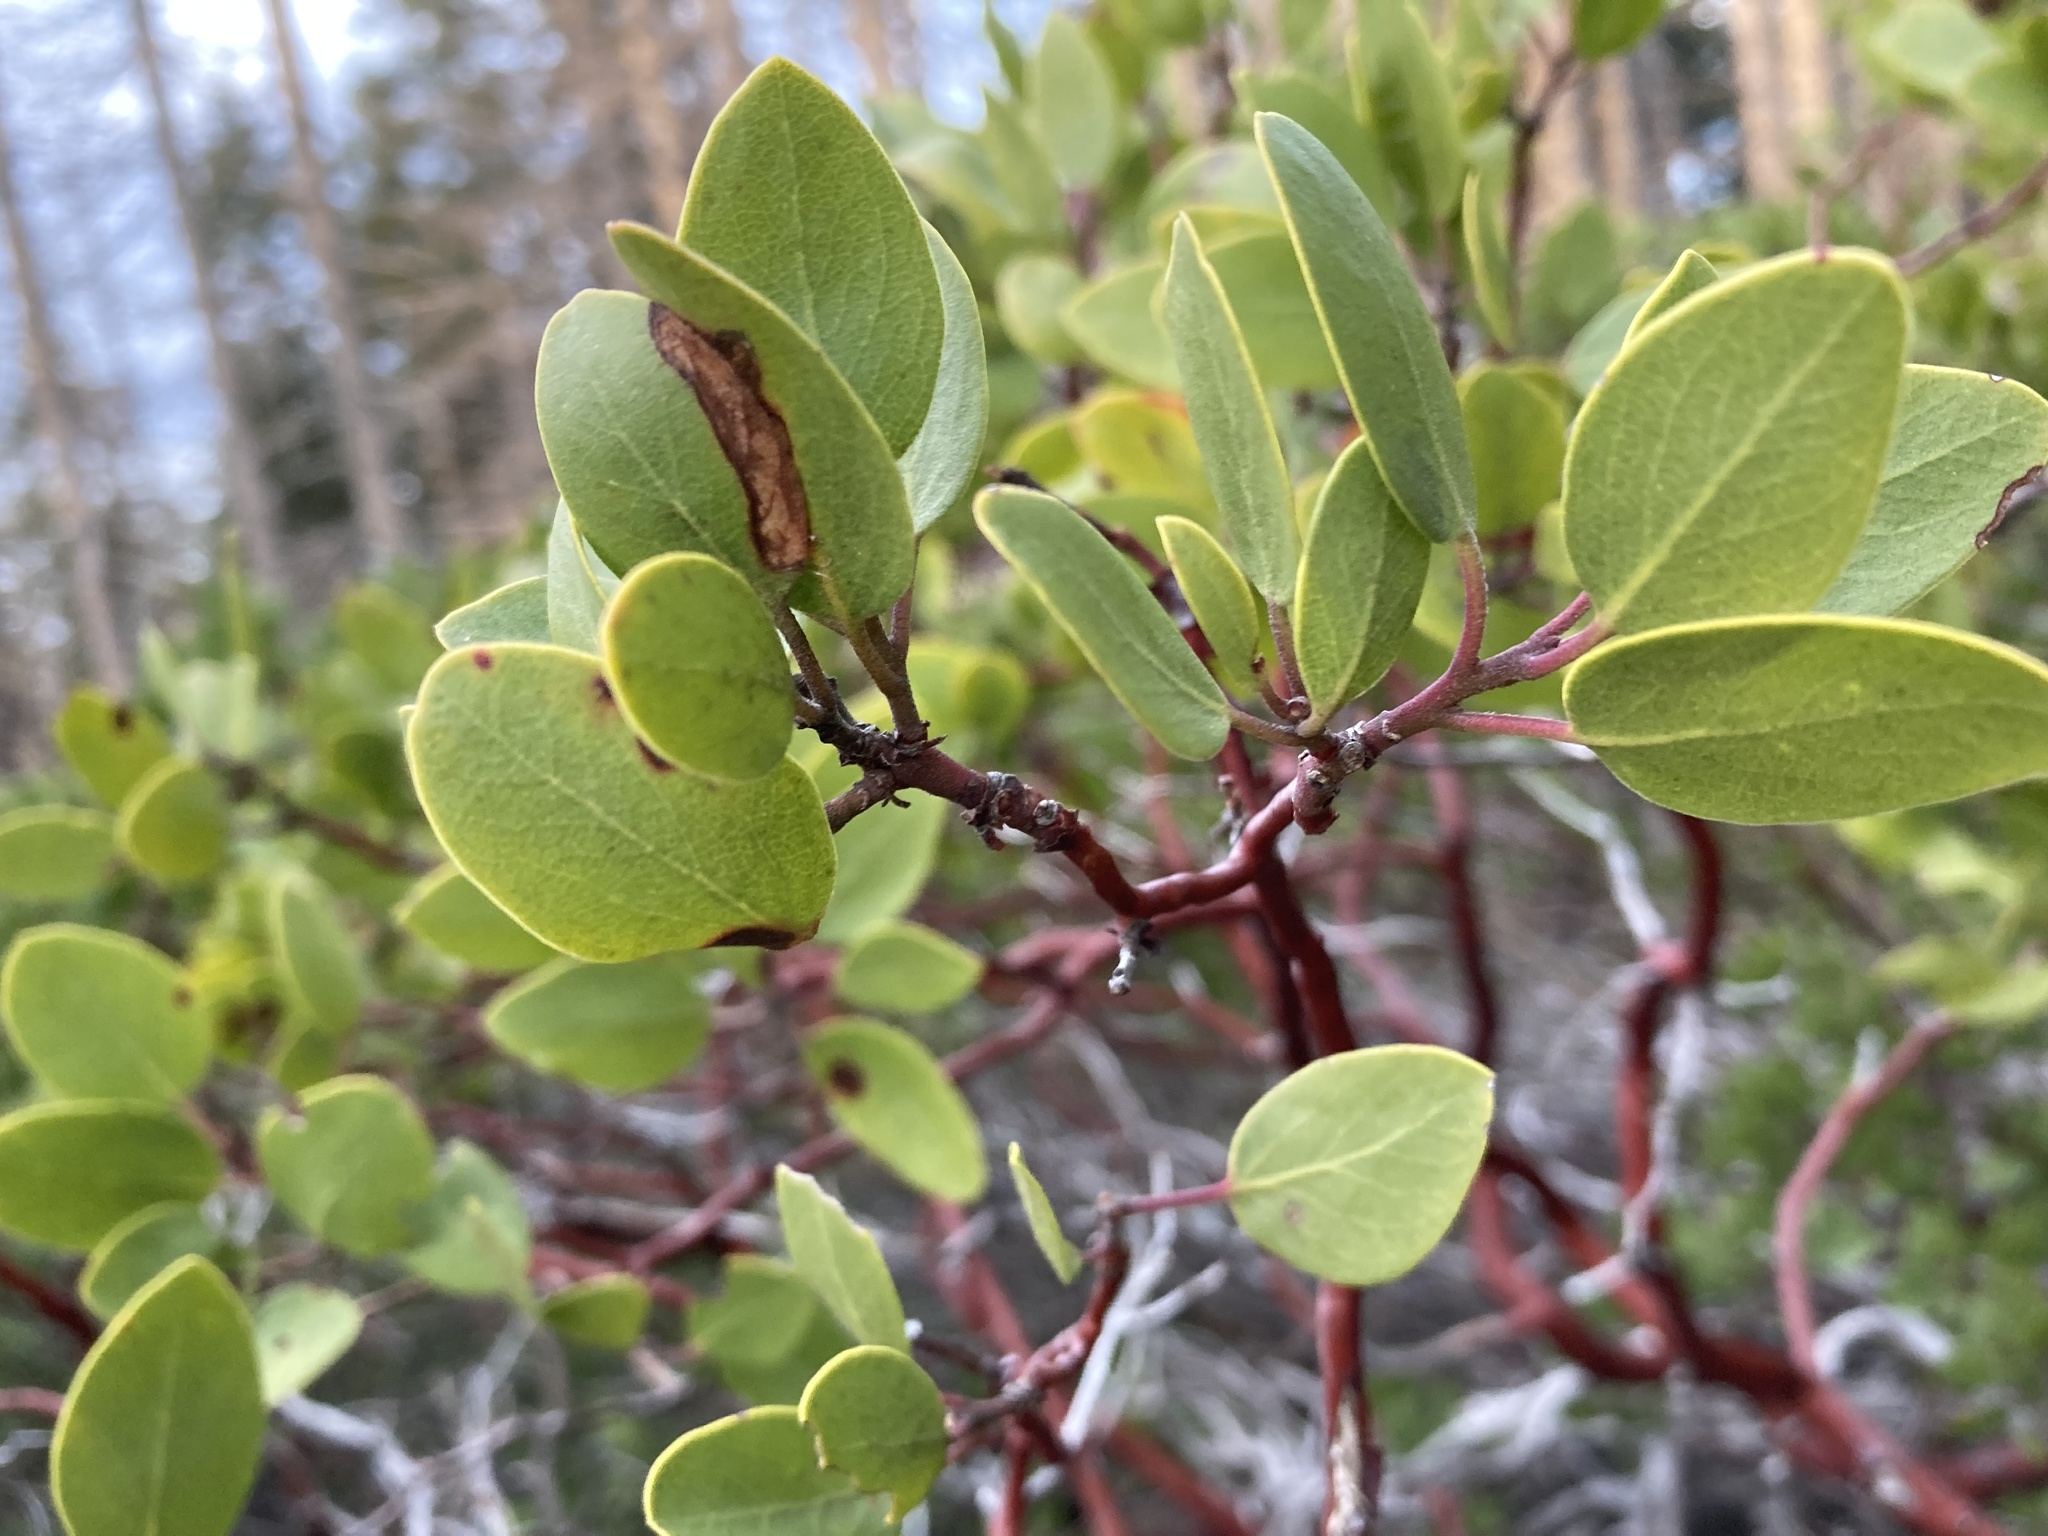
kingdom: Plantae
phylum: Tracheophyta
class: Magnoliopsida
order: Ericales
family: Ericaceae
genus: Arctostaphylos
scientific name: Arctostaphylos patula
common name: Green-leaf manzanita
